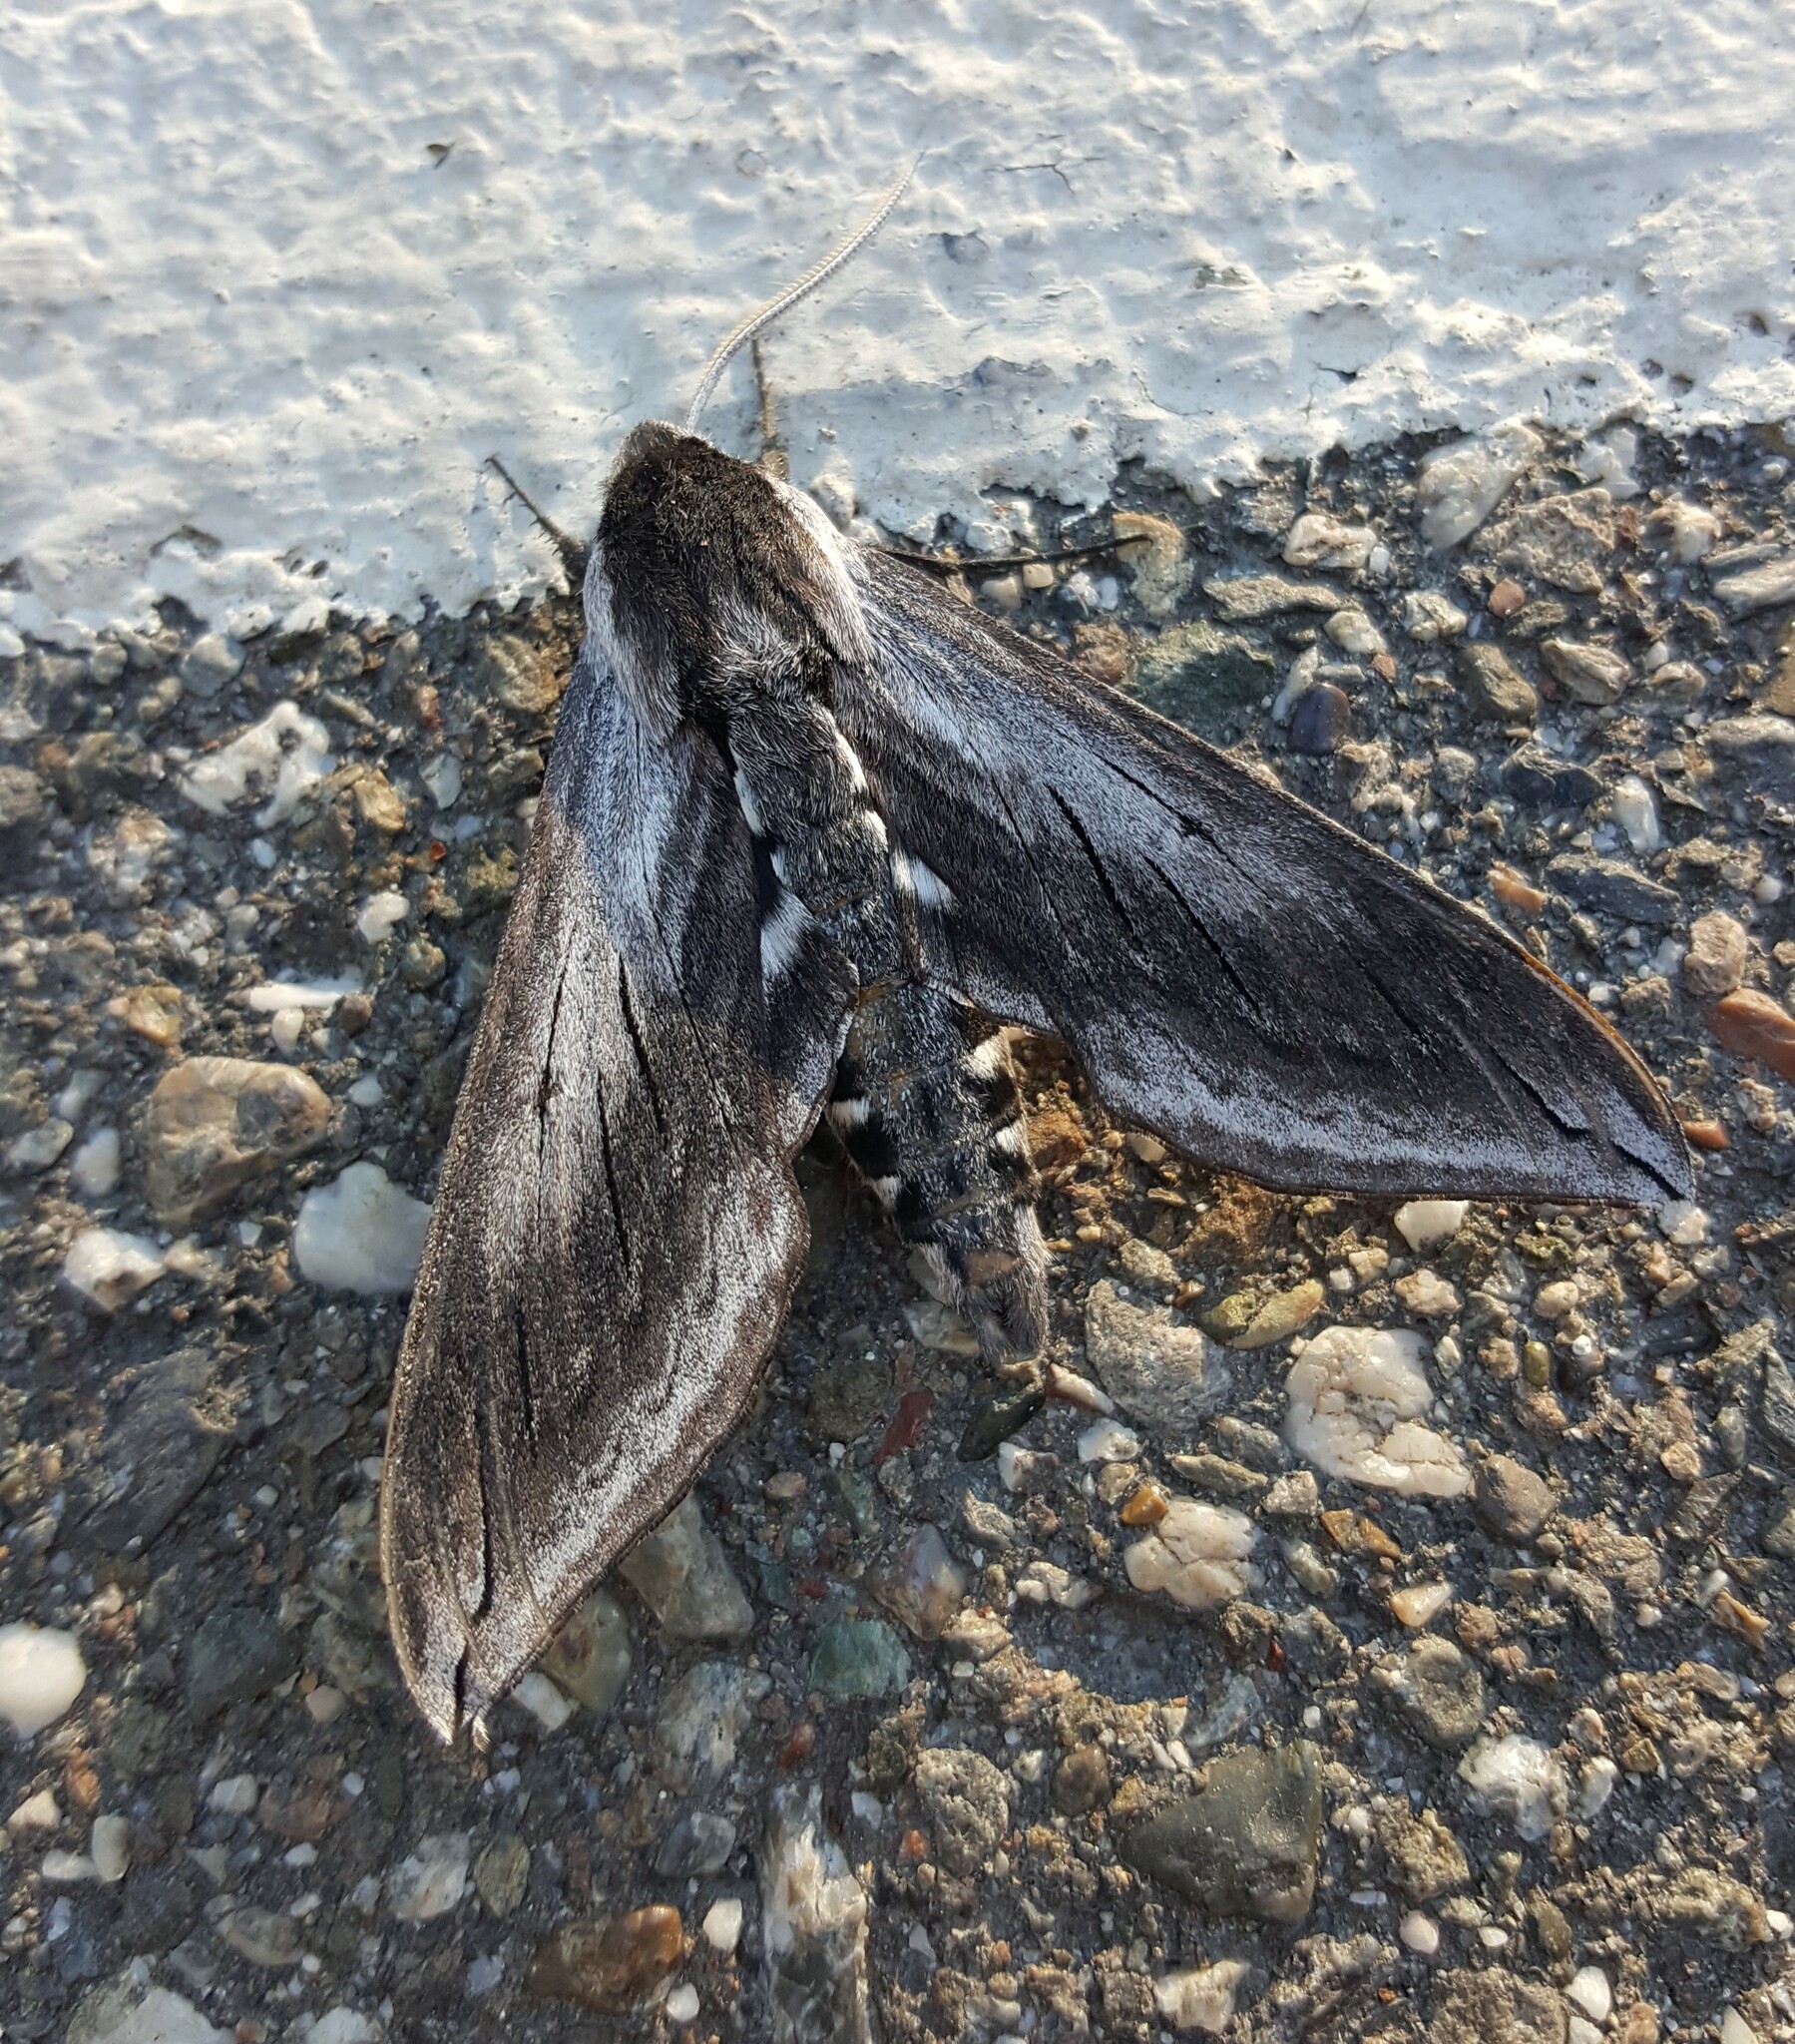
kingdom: Animalia
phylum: Arthropoda
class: Insecta
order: Lepidoptera
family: Sphingidae
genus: Sphinx
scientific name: Sphinx perelegans
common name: Elegant sphinx
